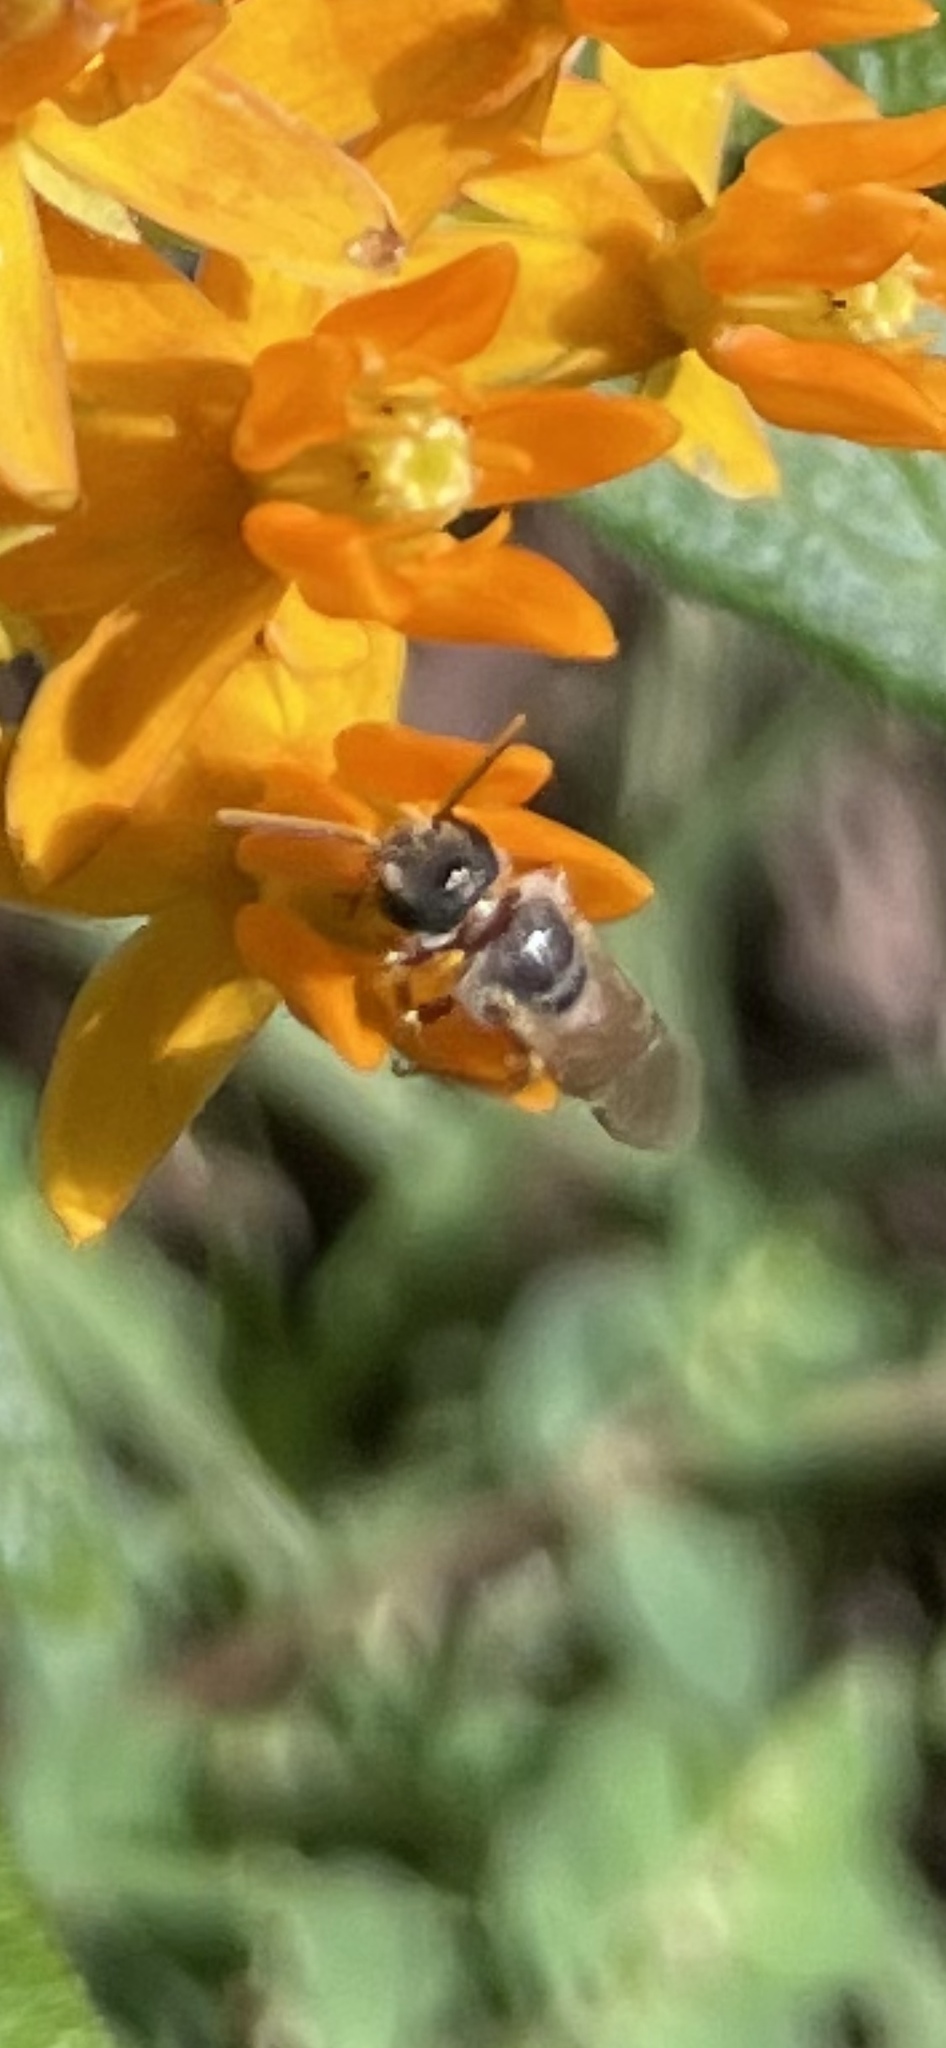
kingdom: Animalia
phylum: Arthropoda
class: Insecta
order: Hymenoptera
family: Halictidae
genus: Halictus
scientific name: Halictus ligatus
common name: Ligated furrow bee
